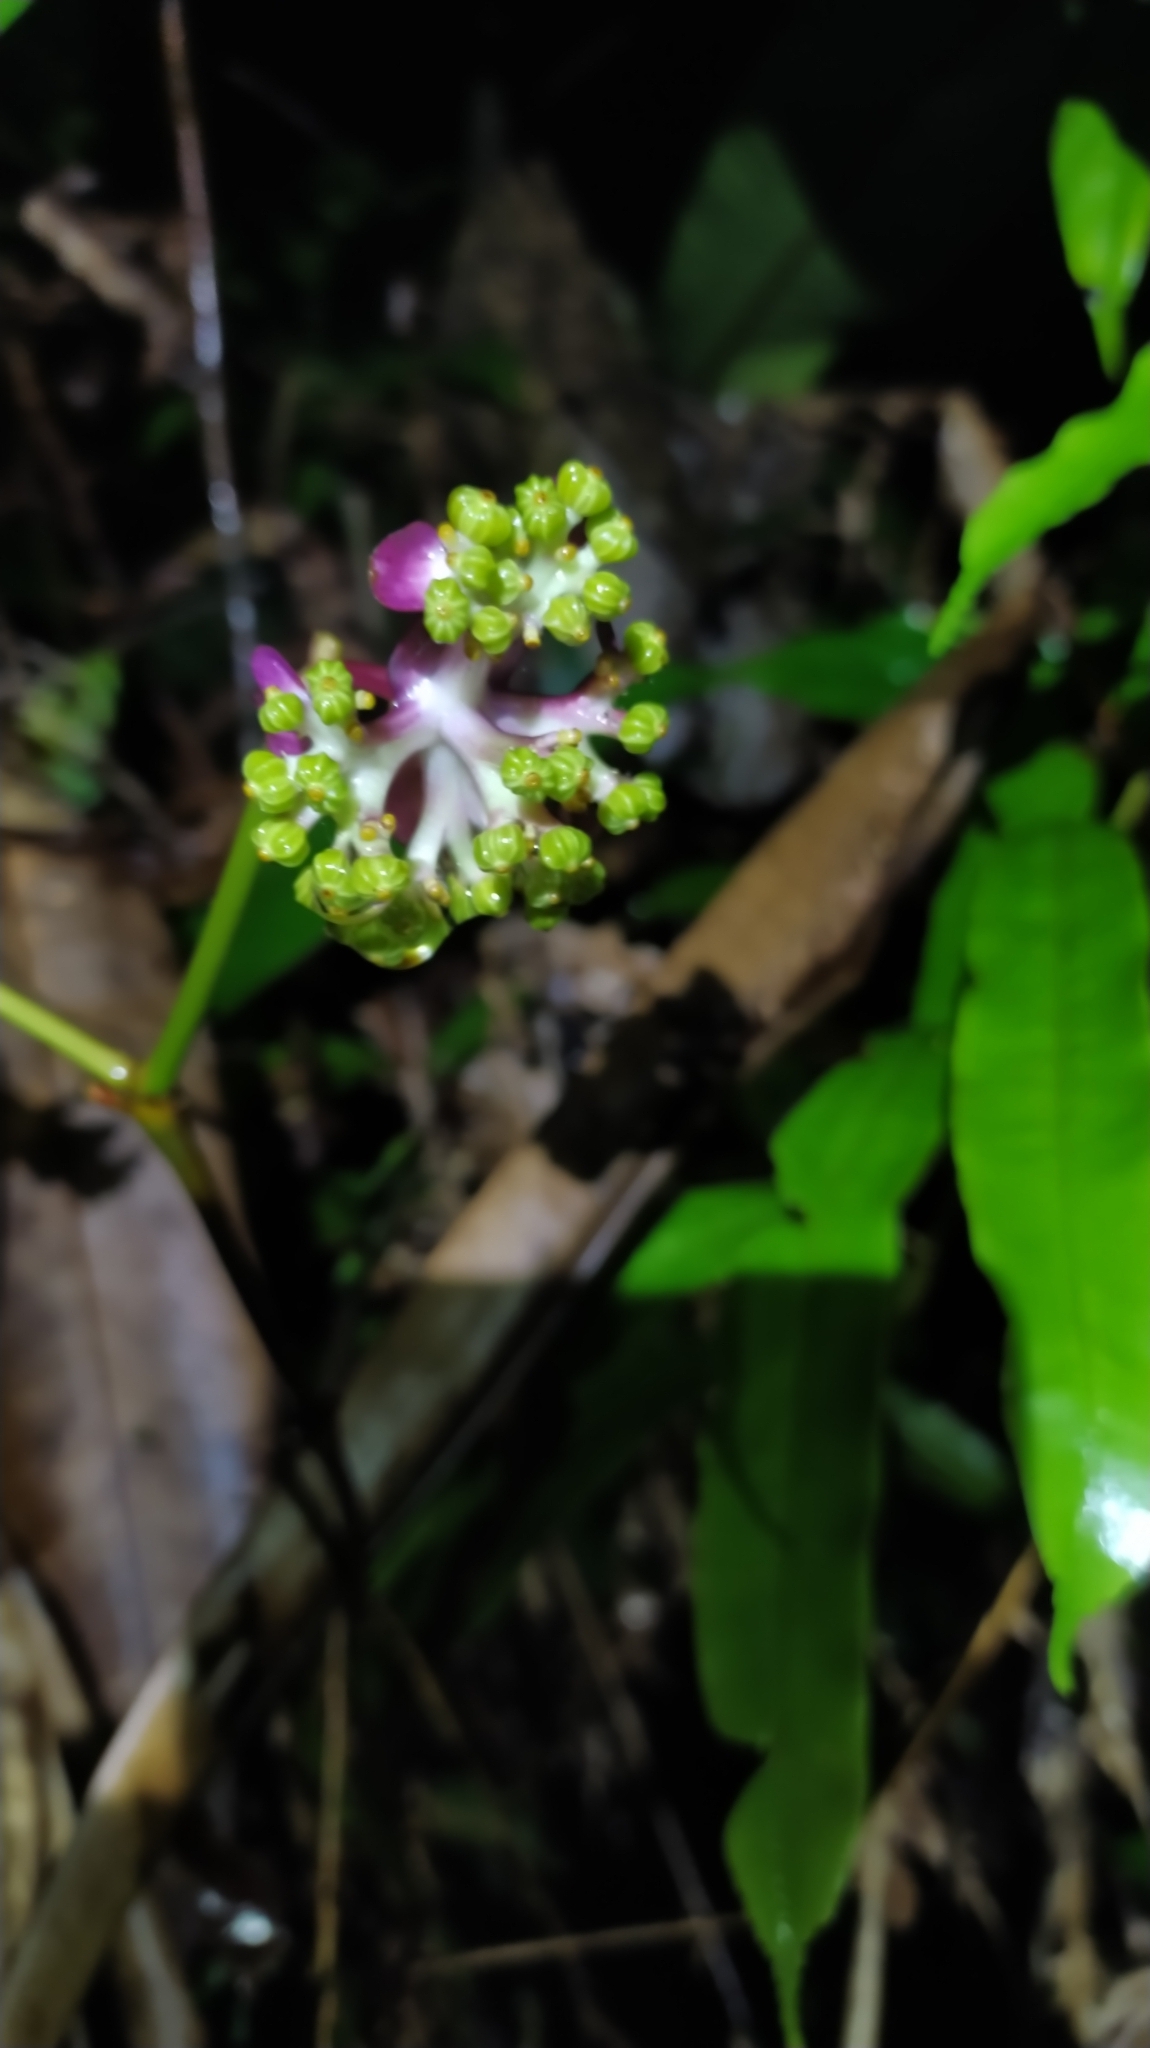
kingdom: Plantae
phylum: Tracheophyta
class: Magnoliopsida
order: Gentianales
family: Rubiaceae
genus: Palicourea
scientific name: Palicourea dichotoma
